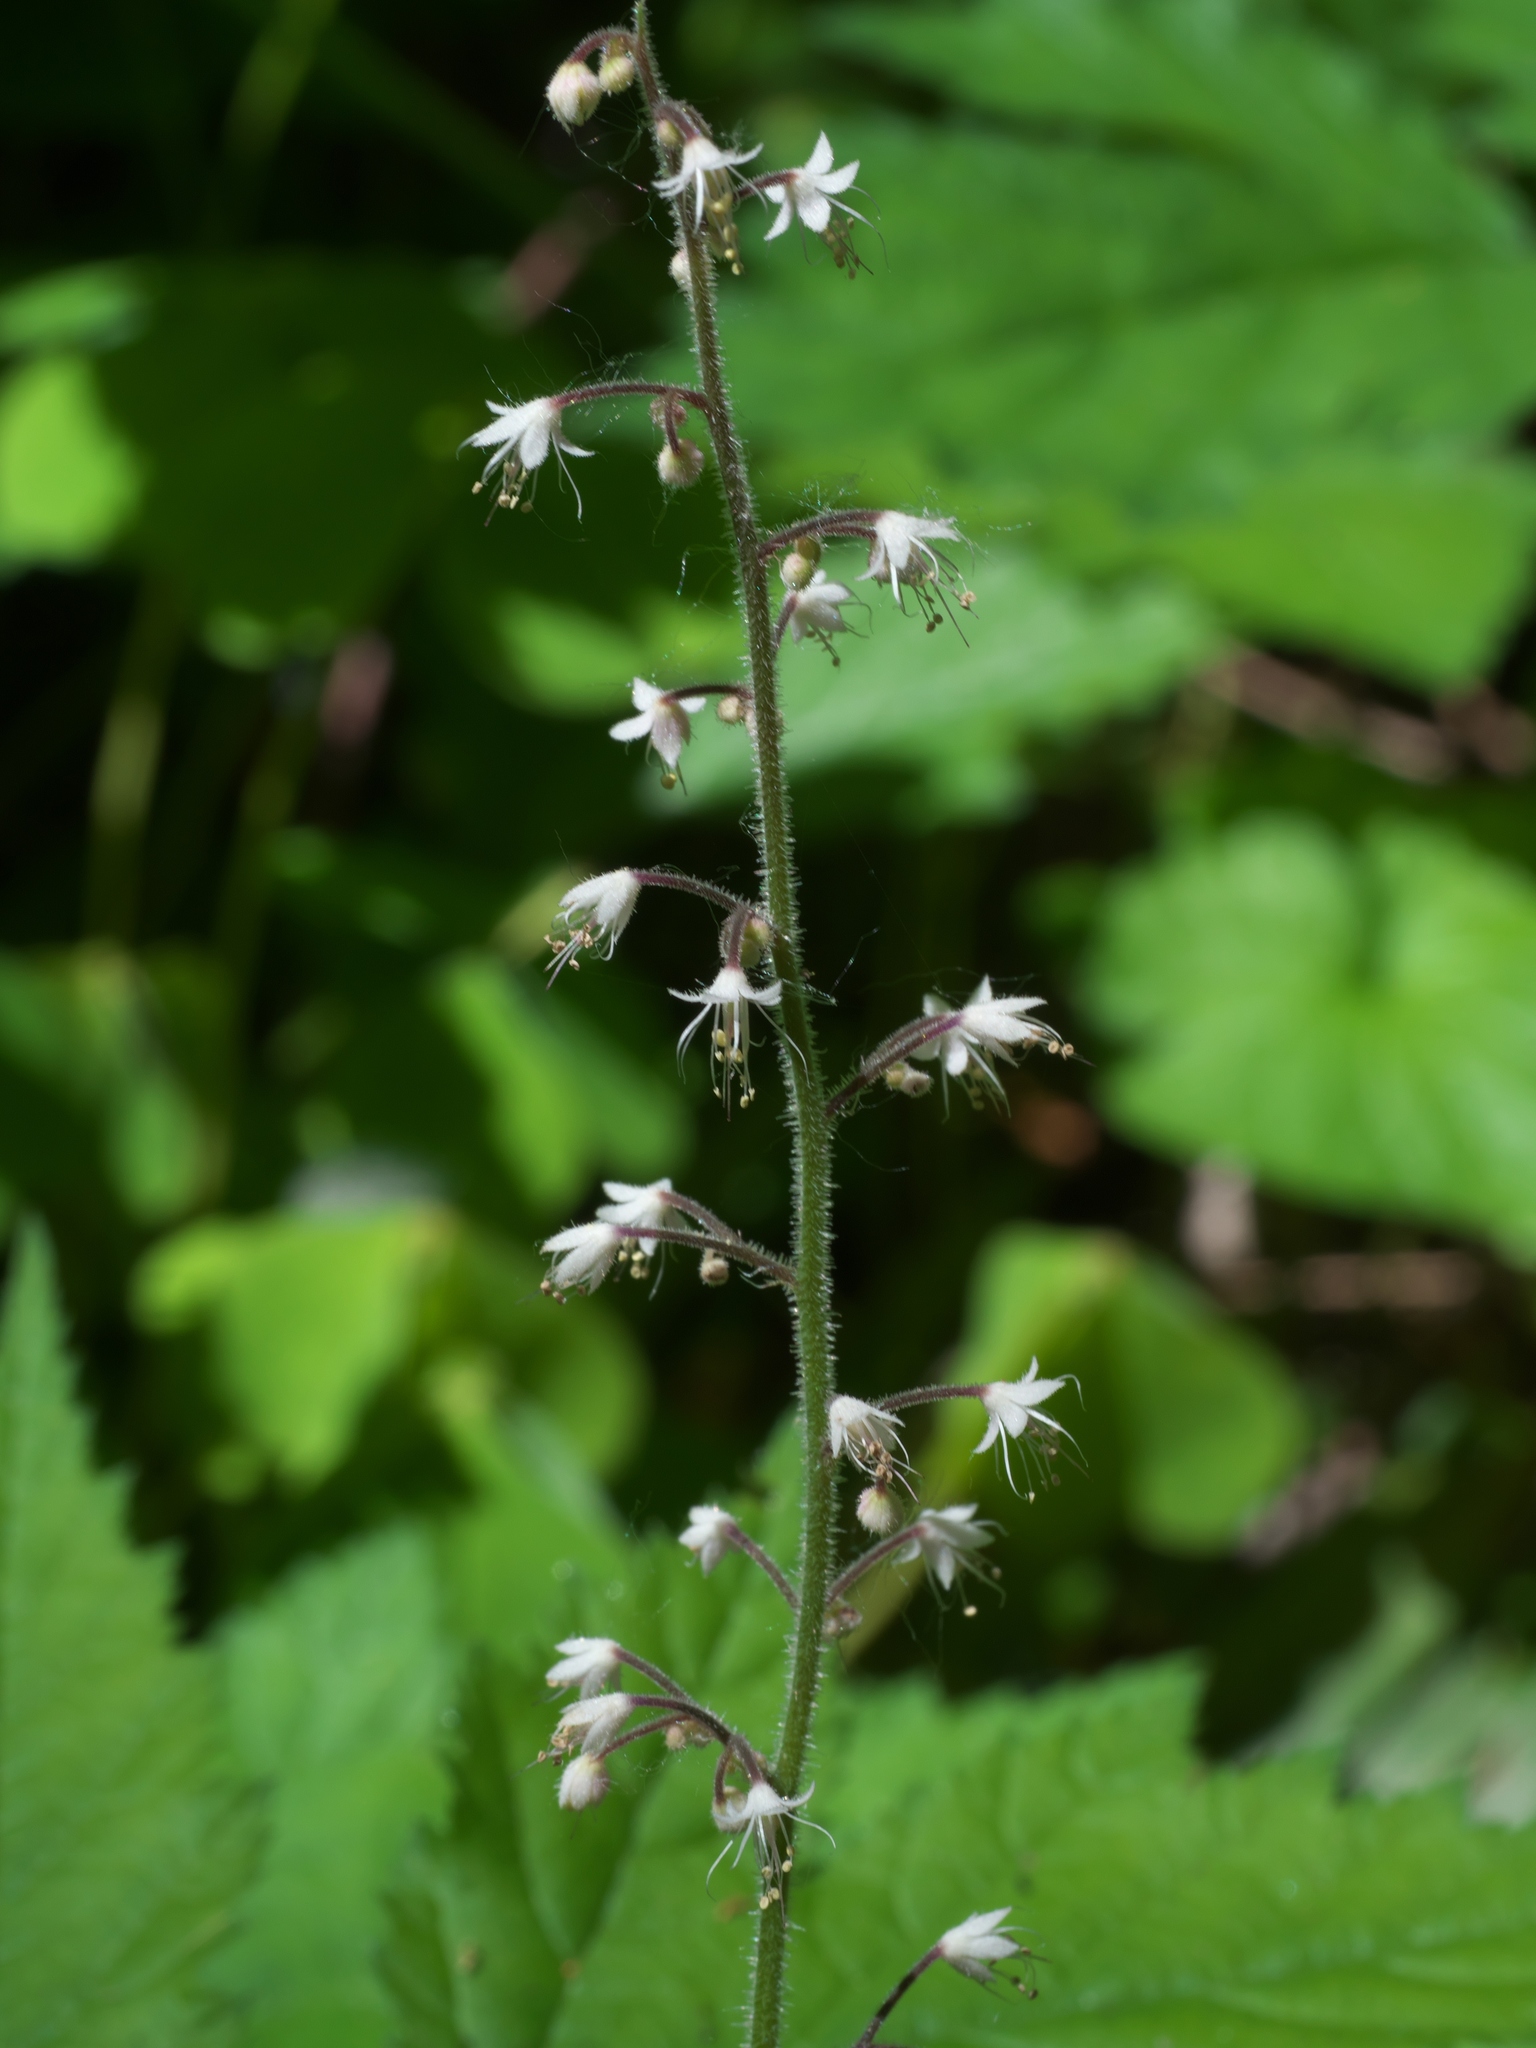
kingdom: Plantae
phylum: Tracheophyta
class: Magnoliopsida
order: Saxifragales
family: Saxifragaceae
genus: Tiarella
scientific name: Tiarella trifoliata
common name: Sugar-scoop
